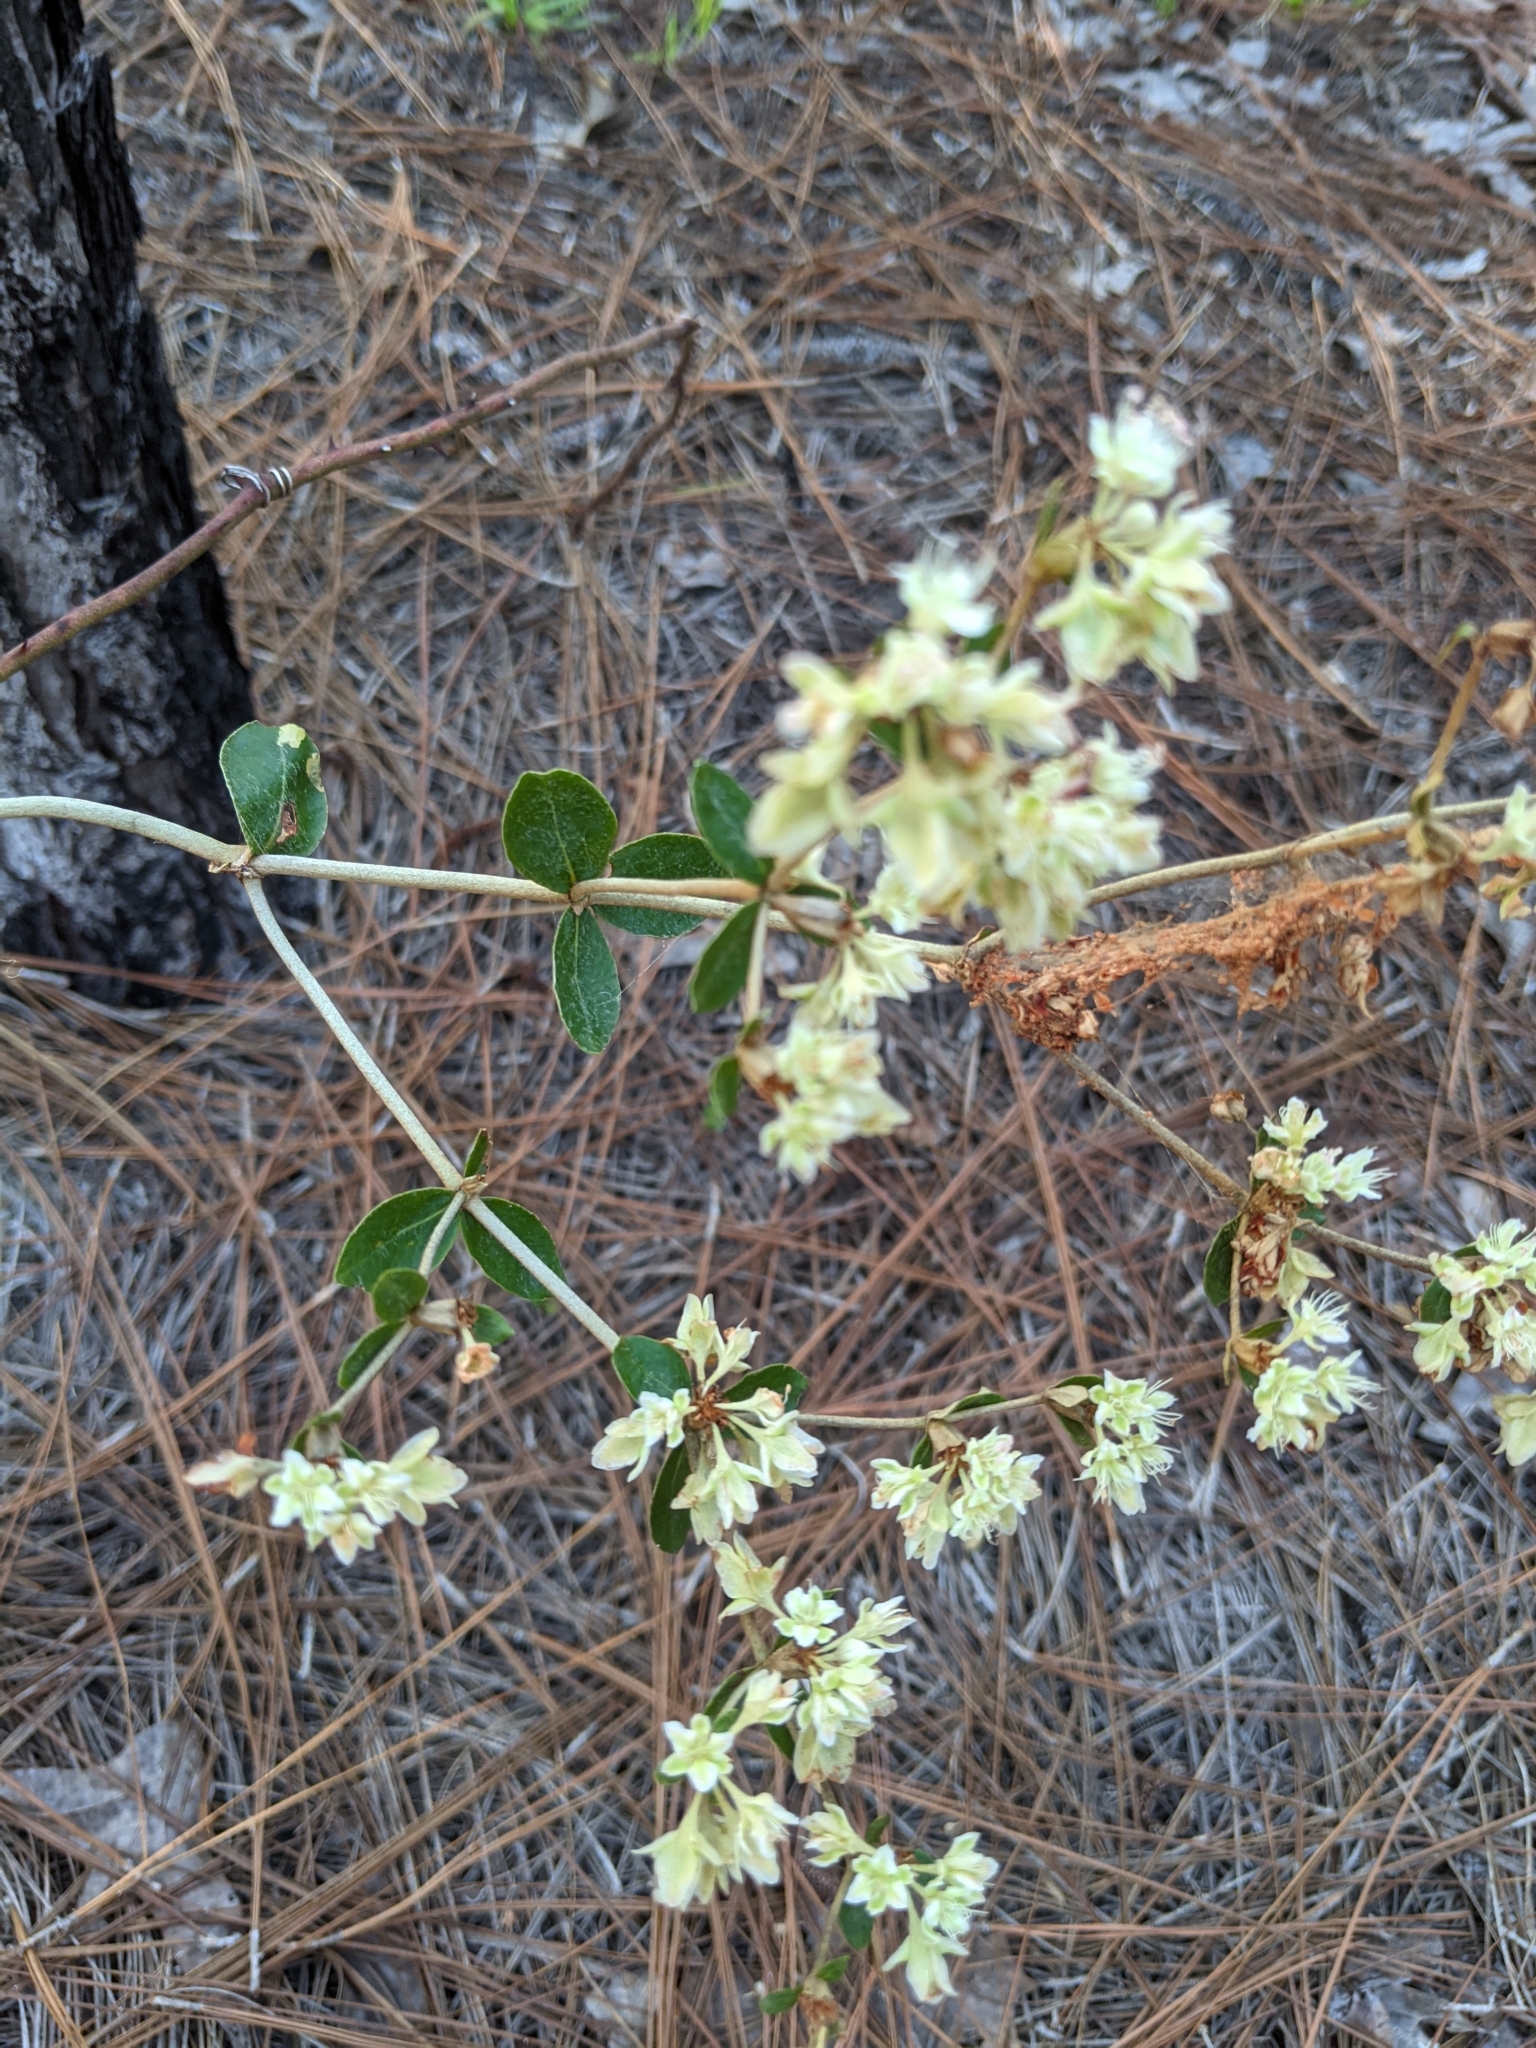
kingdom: Plantae
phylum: Tracheophyta
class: Magnoliopsida
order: Caryophyllales
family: Polygonaceae
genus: Eriogonum
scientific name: Eriogonum tomentosum
